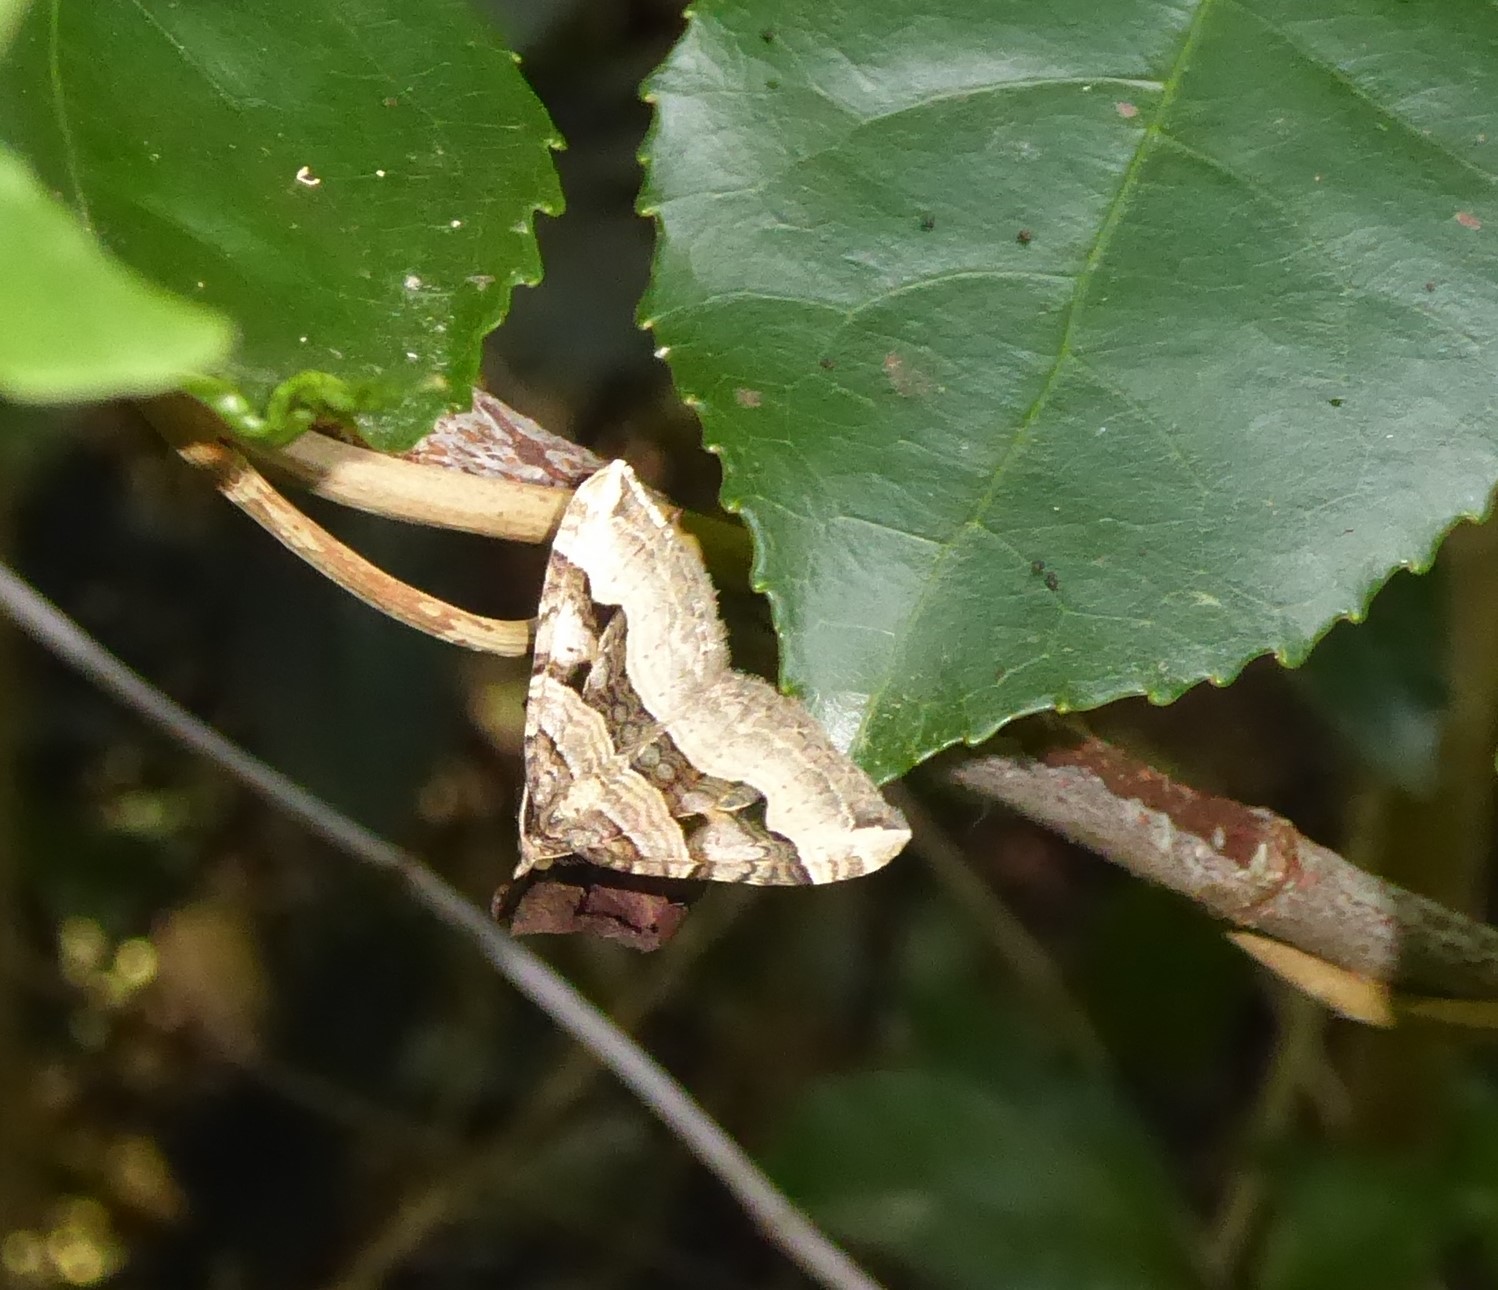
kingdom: Animalia
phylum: Arthropoda
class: Insecta
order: Lepidoptera
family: Geometridae
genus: Xanthorhoe
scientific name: Xanthorhoe semifissata
